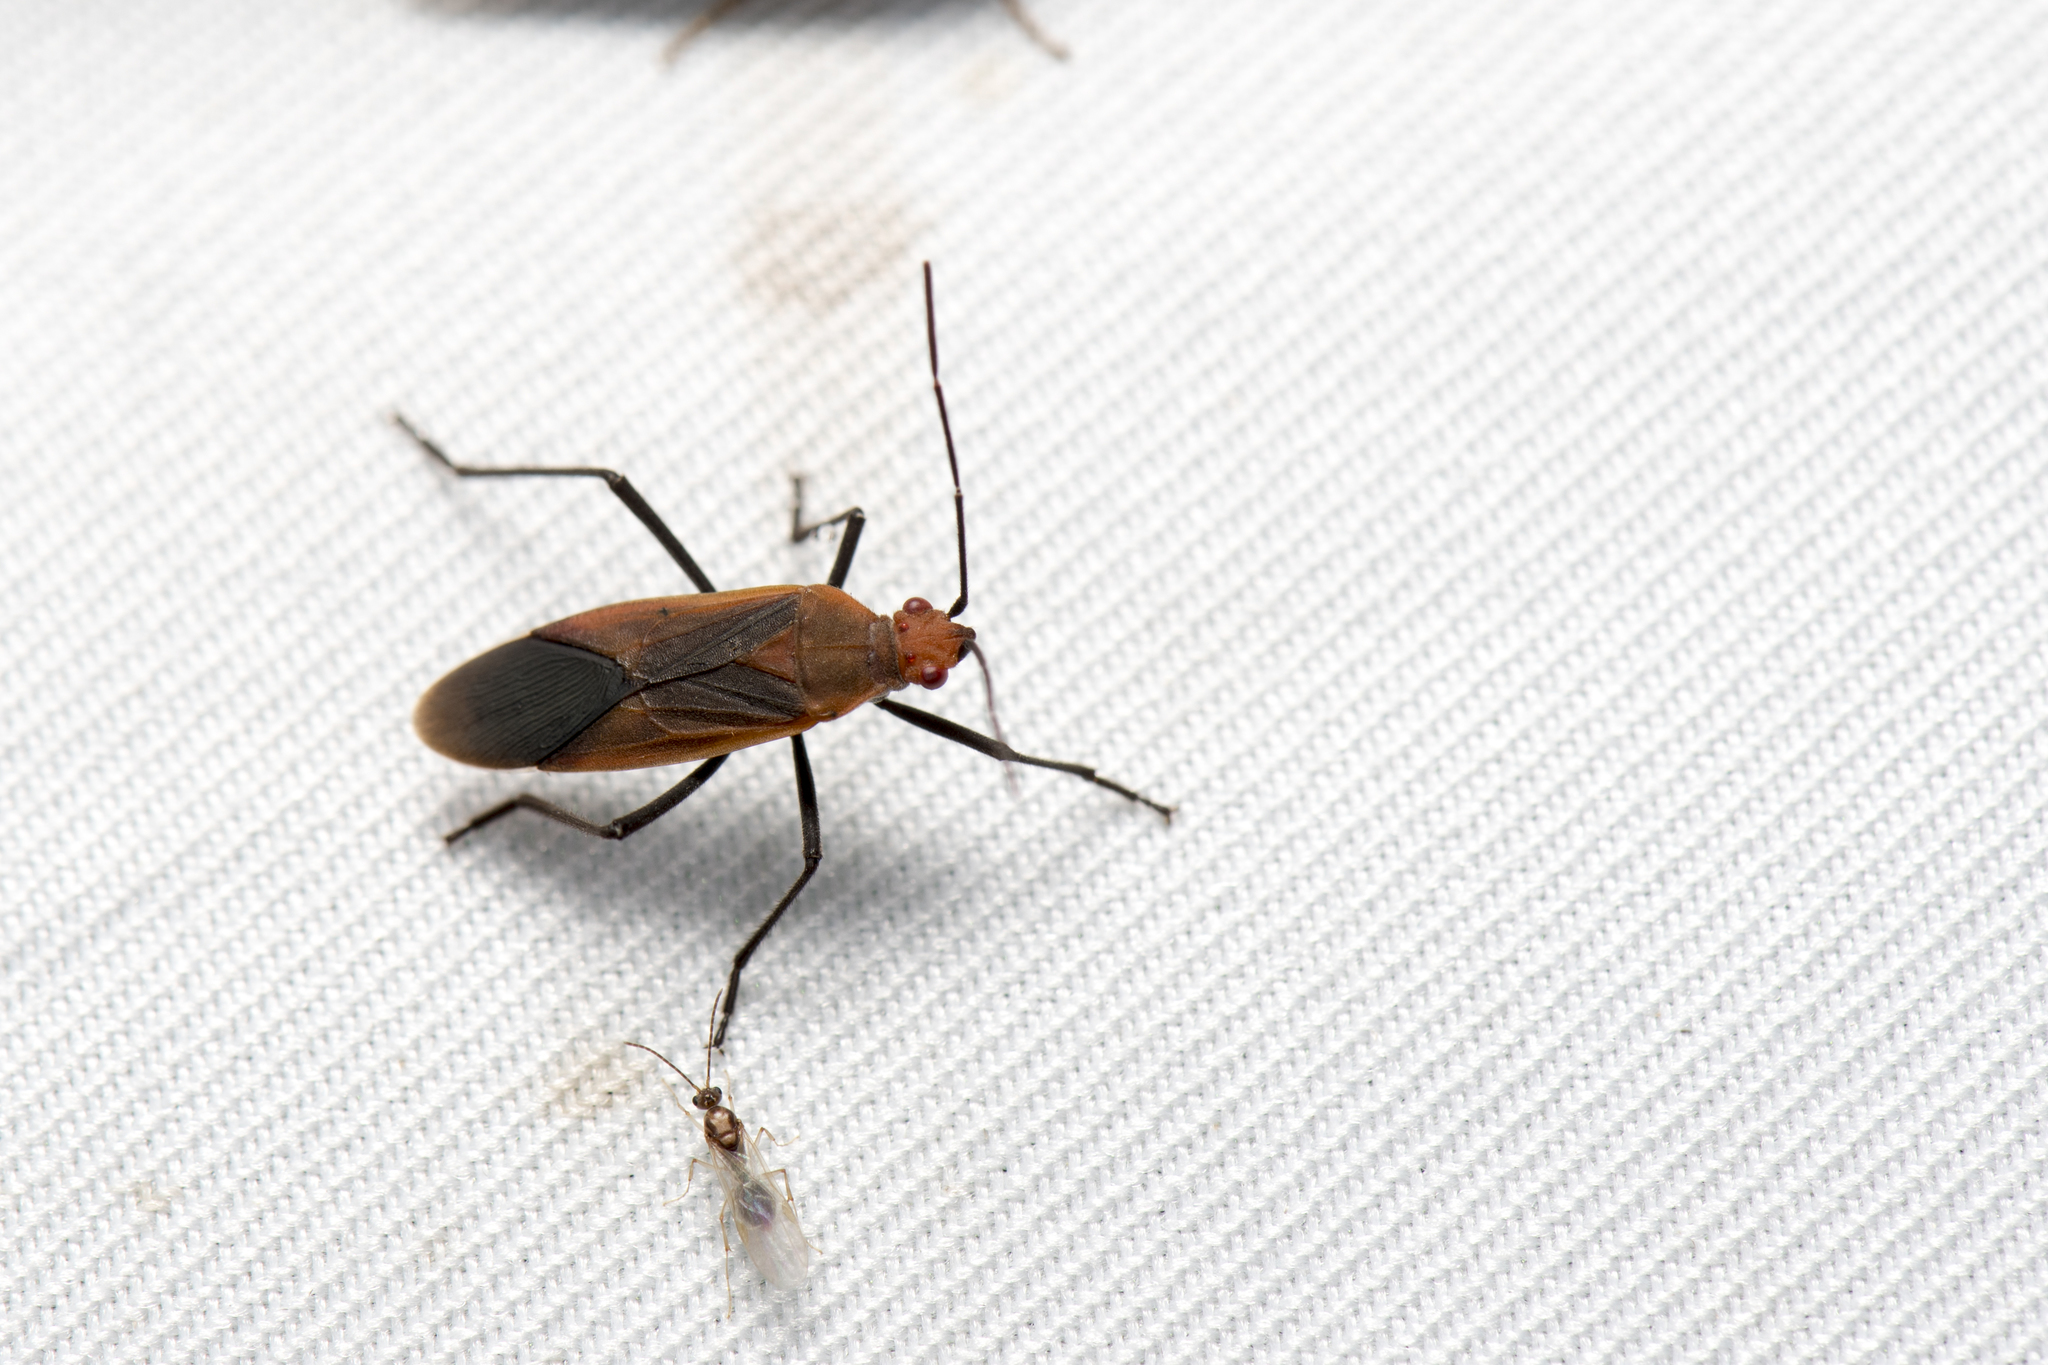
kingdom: Animalia
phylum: Arthropoda
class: Insecta
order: Hemiptera
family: Rhopalidae
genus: Leptocoris
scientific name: Leptocoris vicinus
